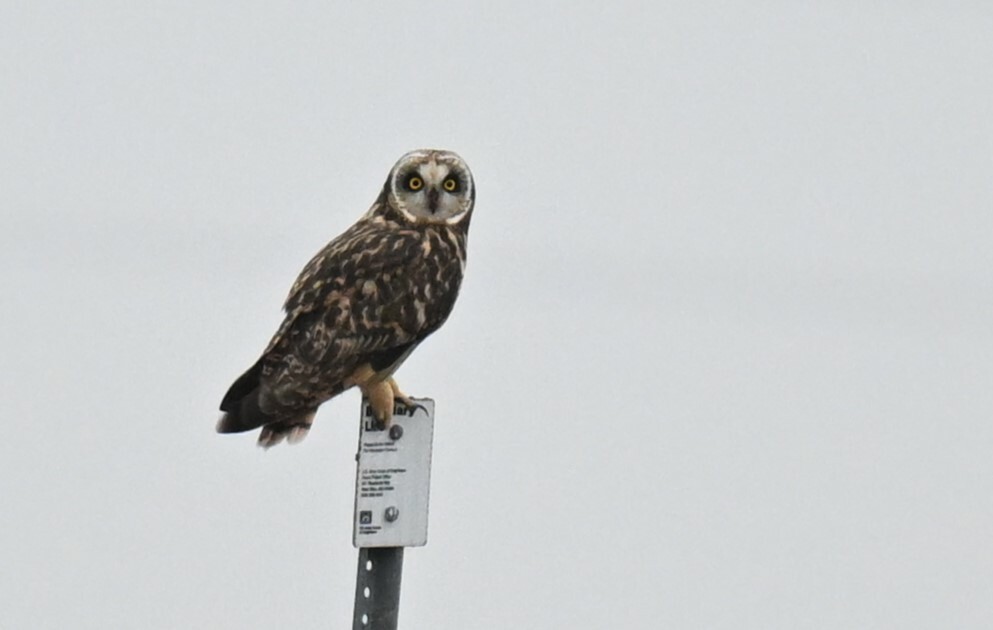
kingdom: Animalia
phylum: Chordata
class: Aves
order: Strigiformes
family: Strigidae
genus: Asio
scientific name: Asio flammeus
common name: Short-eared owl
